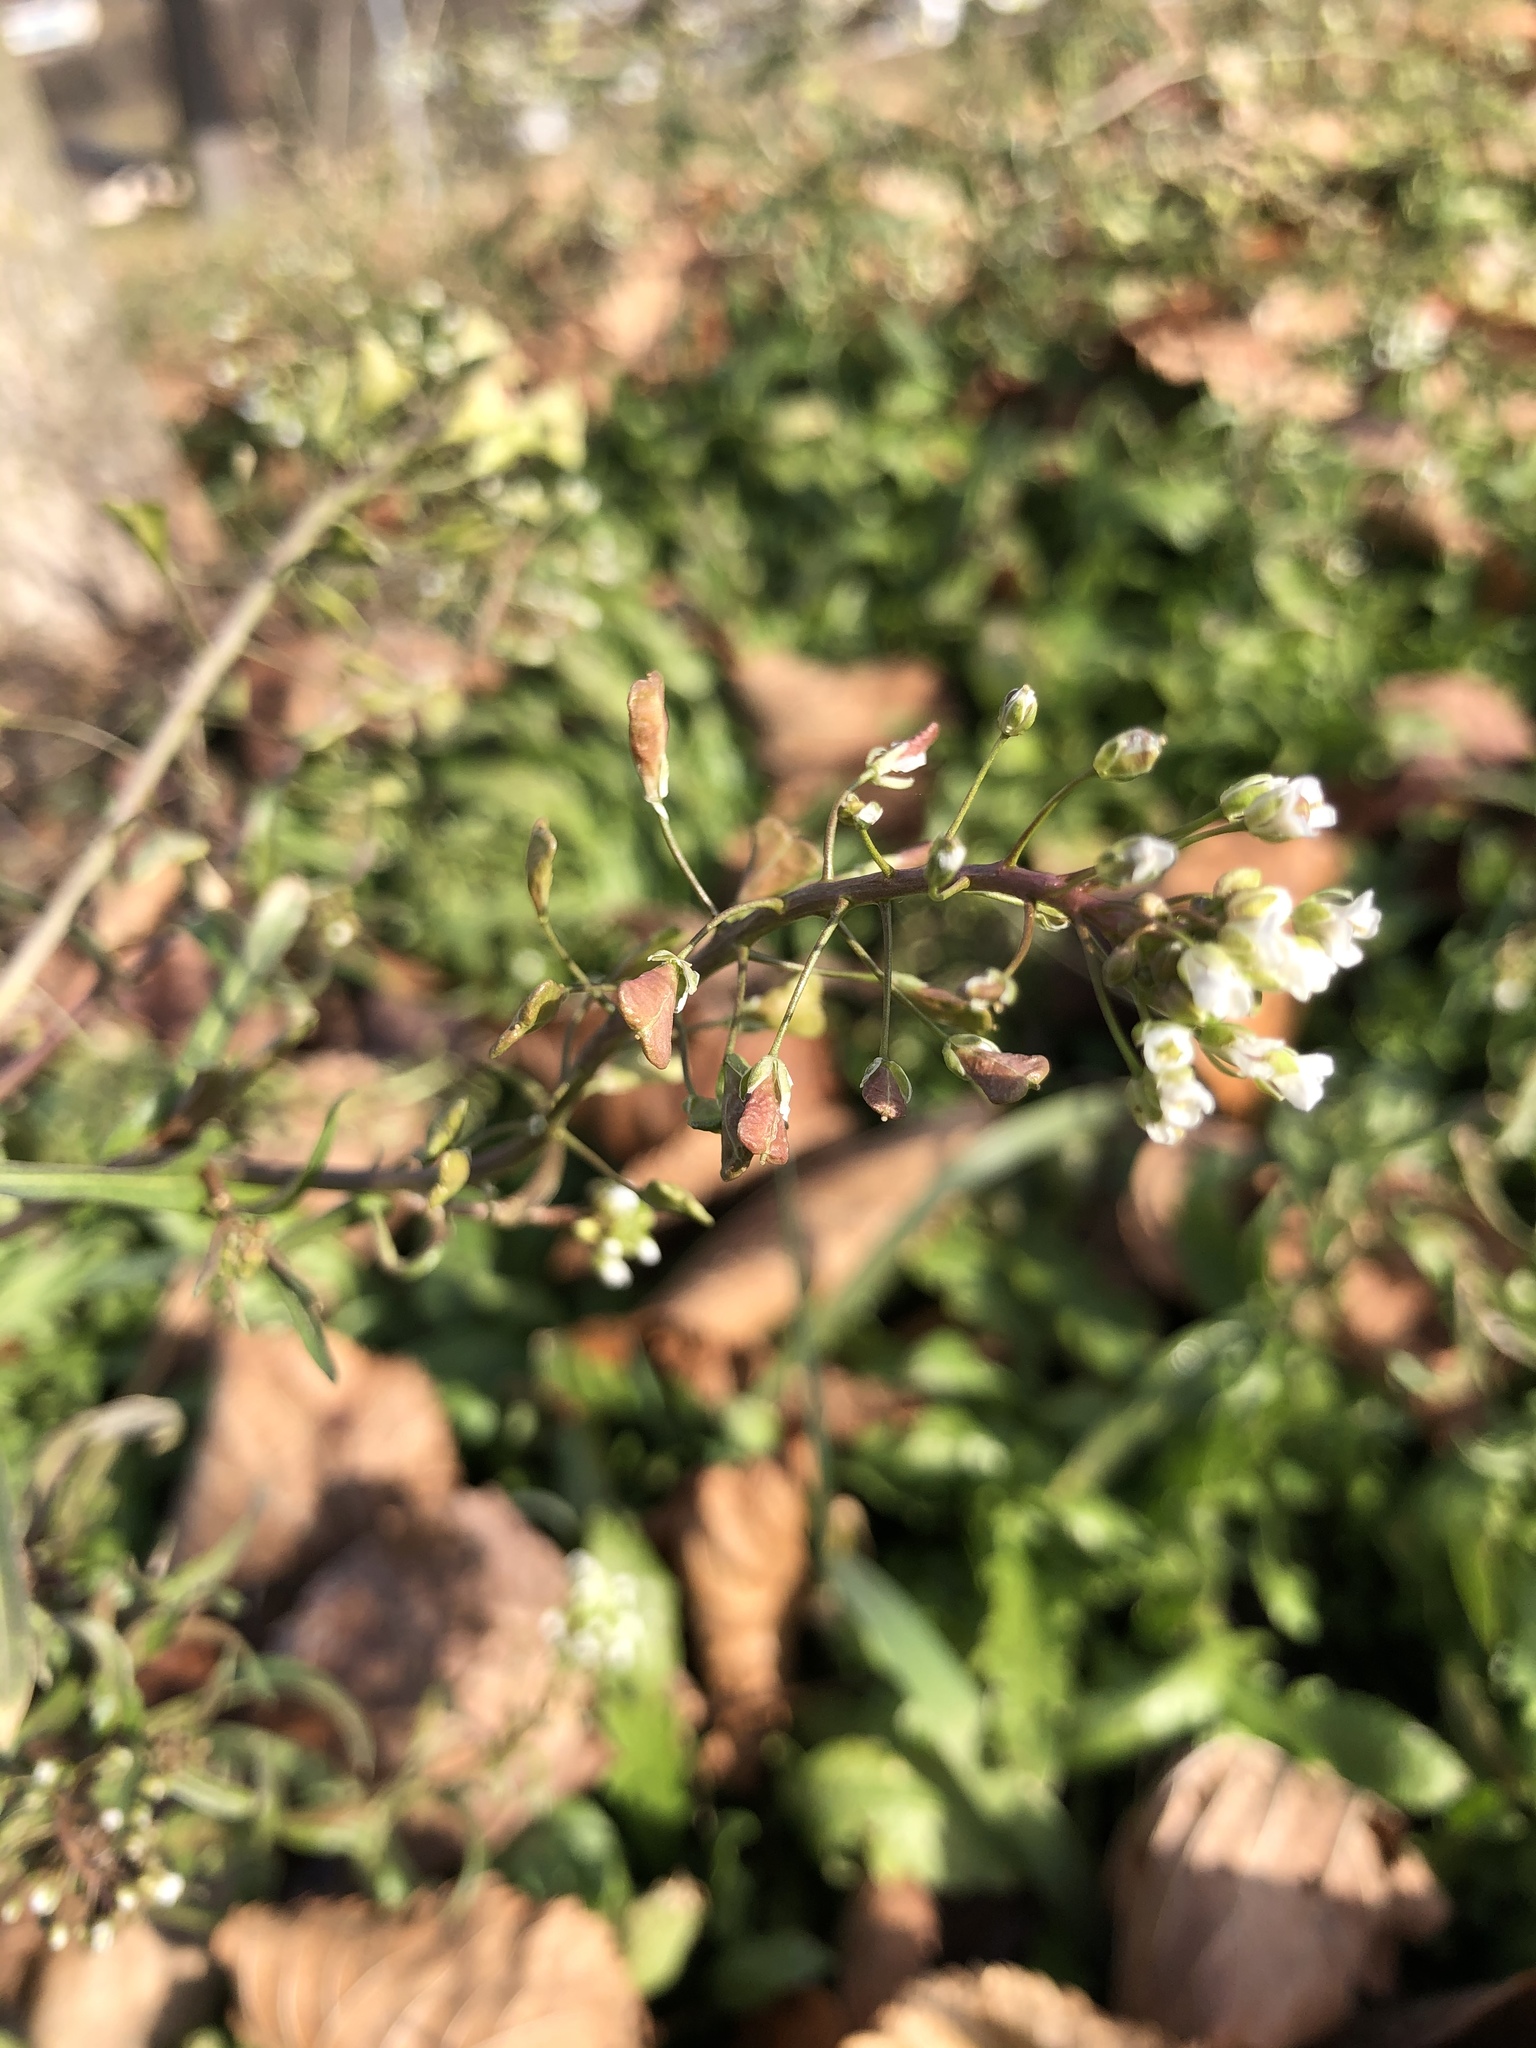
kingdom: Plantae
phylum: Tracheophyta
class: Magnoliopsida
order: Brassicales
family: Brassicaceae
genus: Capsella
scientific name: Capsella bursa-pastoris
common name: Shepherd's purse
